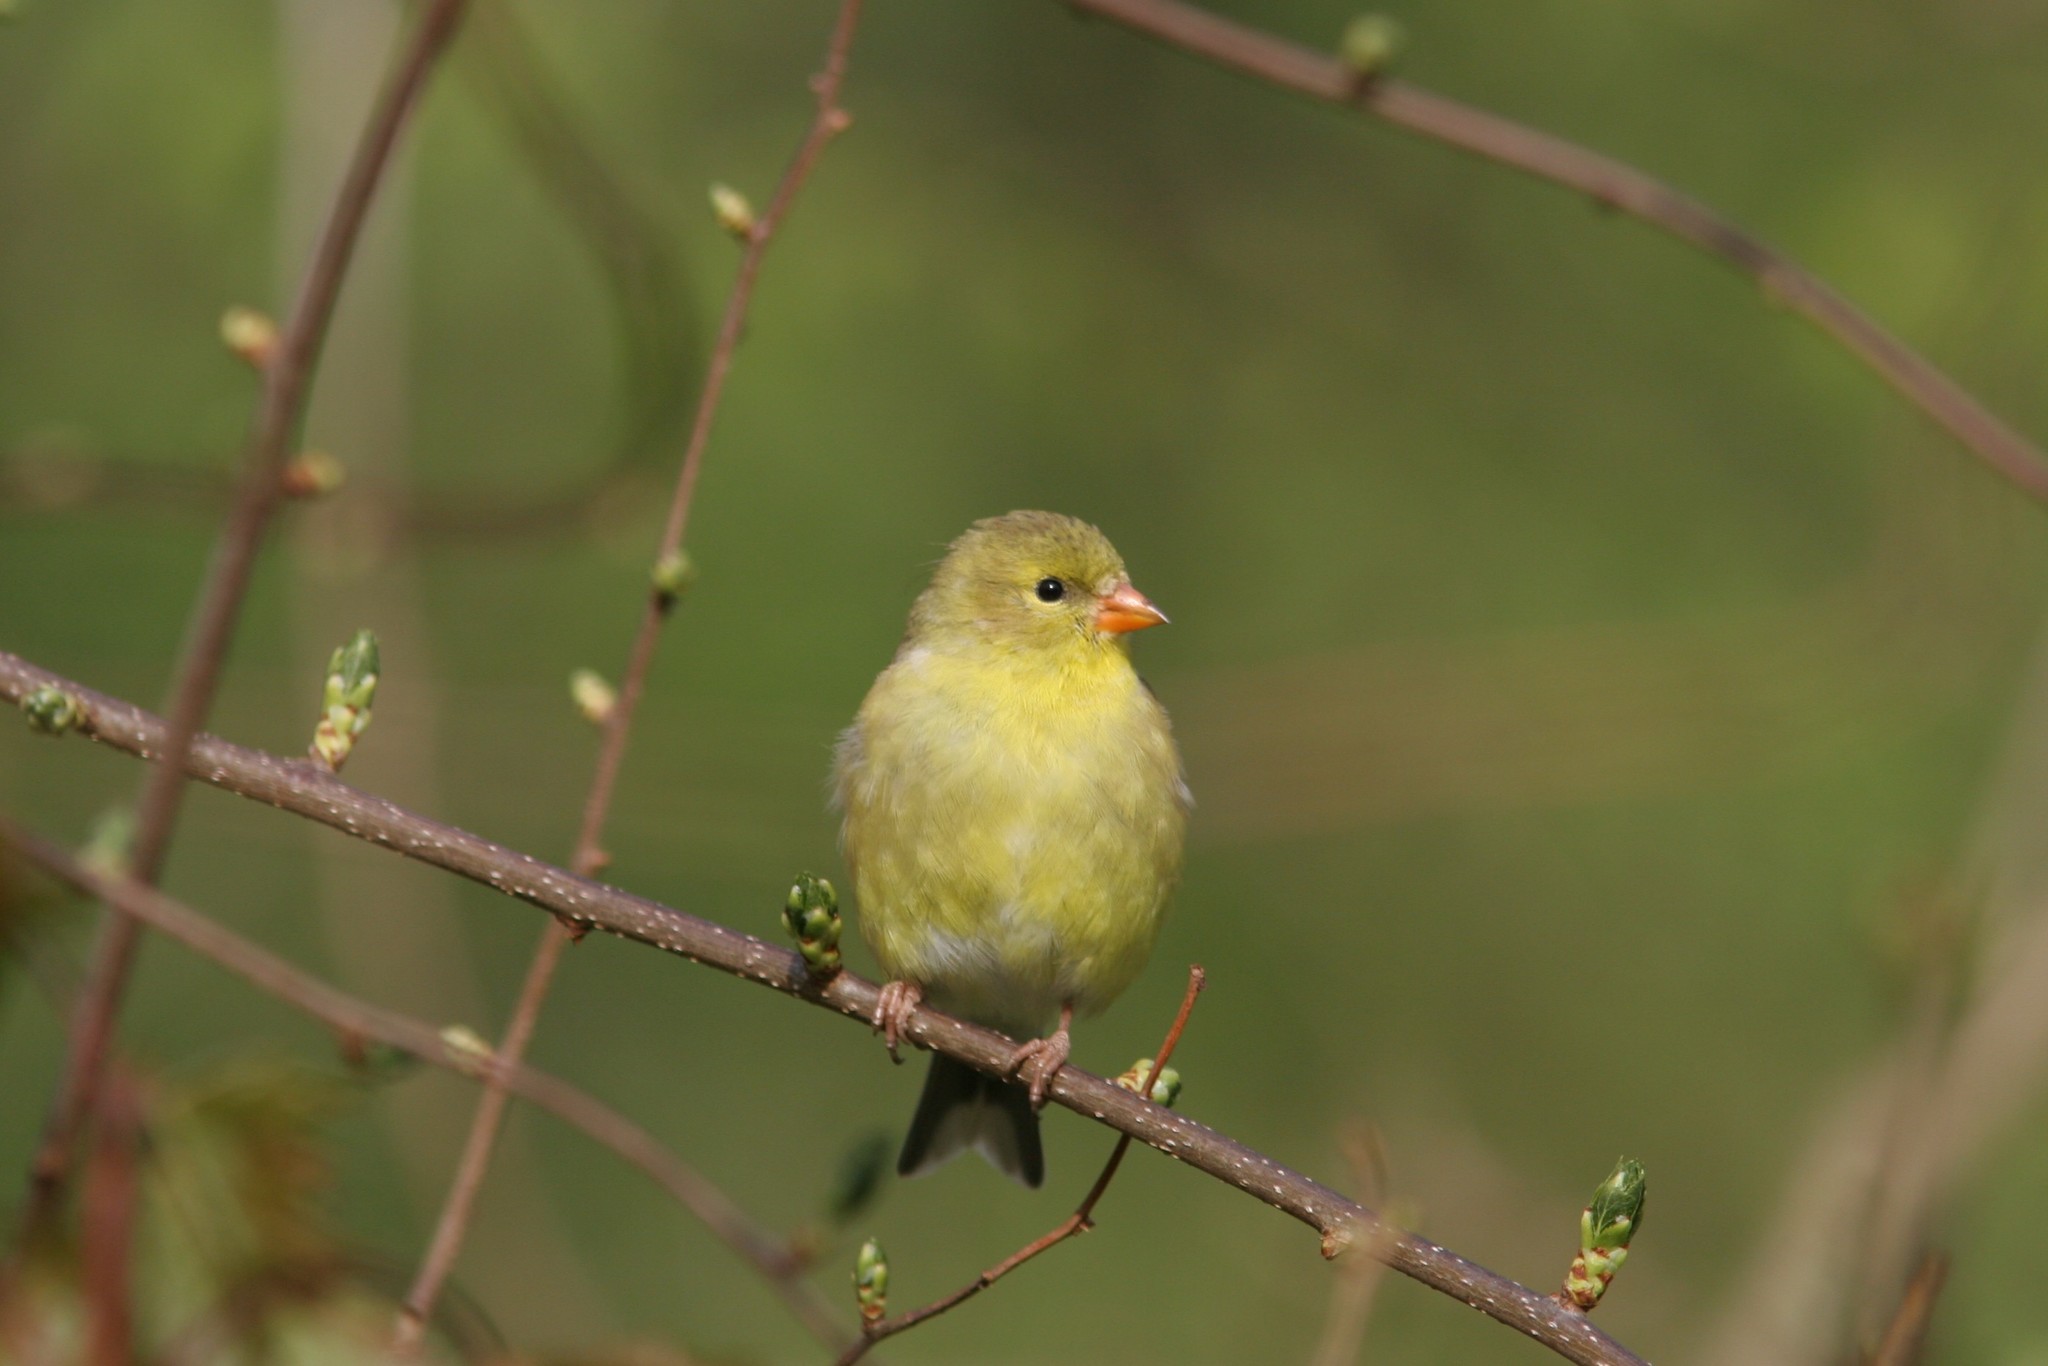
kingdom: Animalia
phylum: Chordata
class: Aves
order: Passeriformes
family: Fringillidae
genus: Spinus
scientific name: Spinus tristis
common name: American goldfinch
